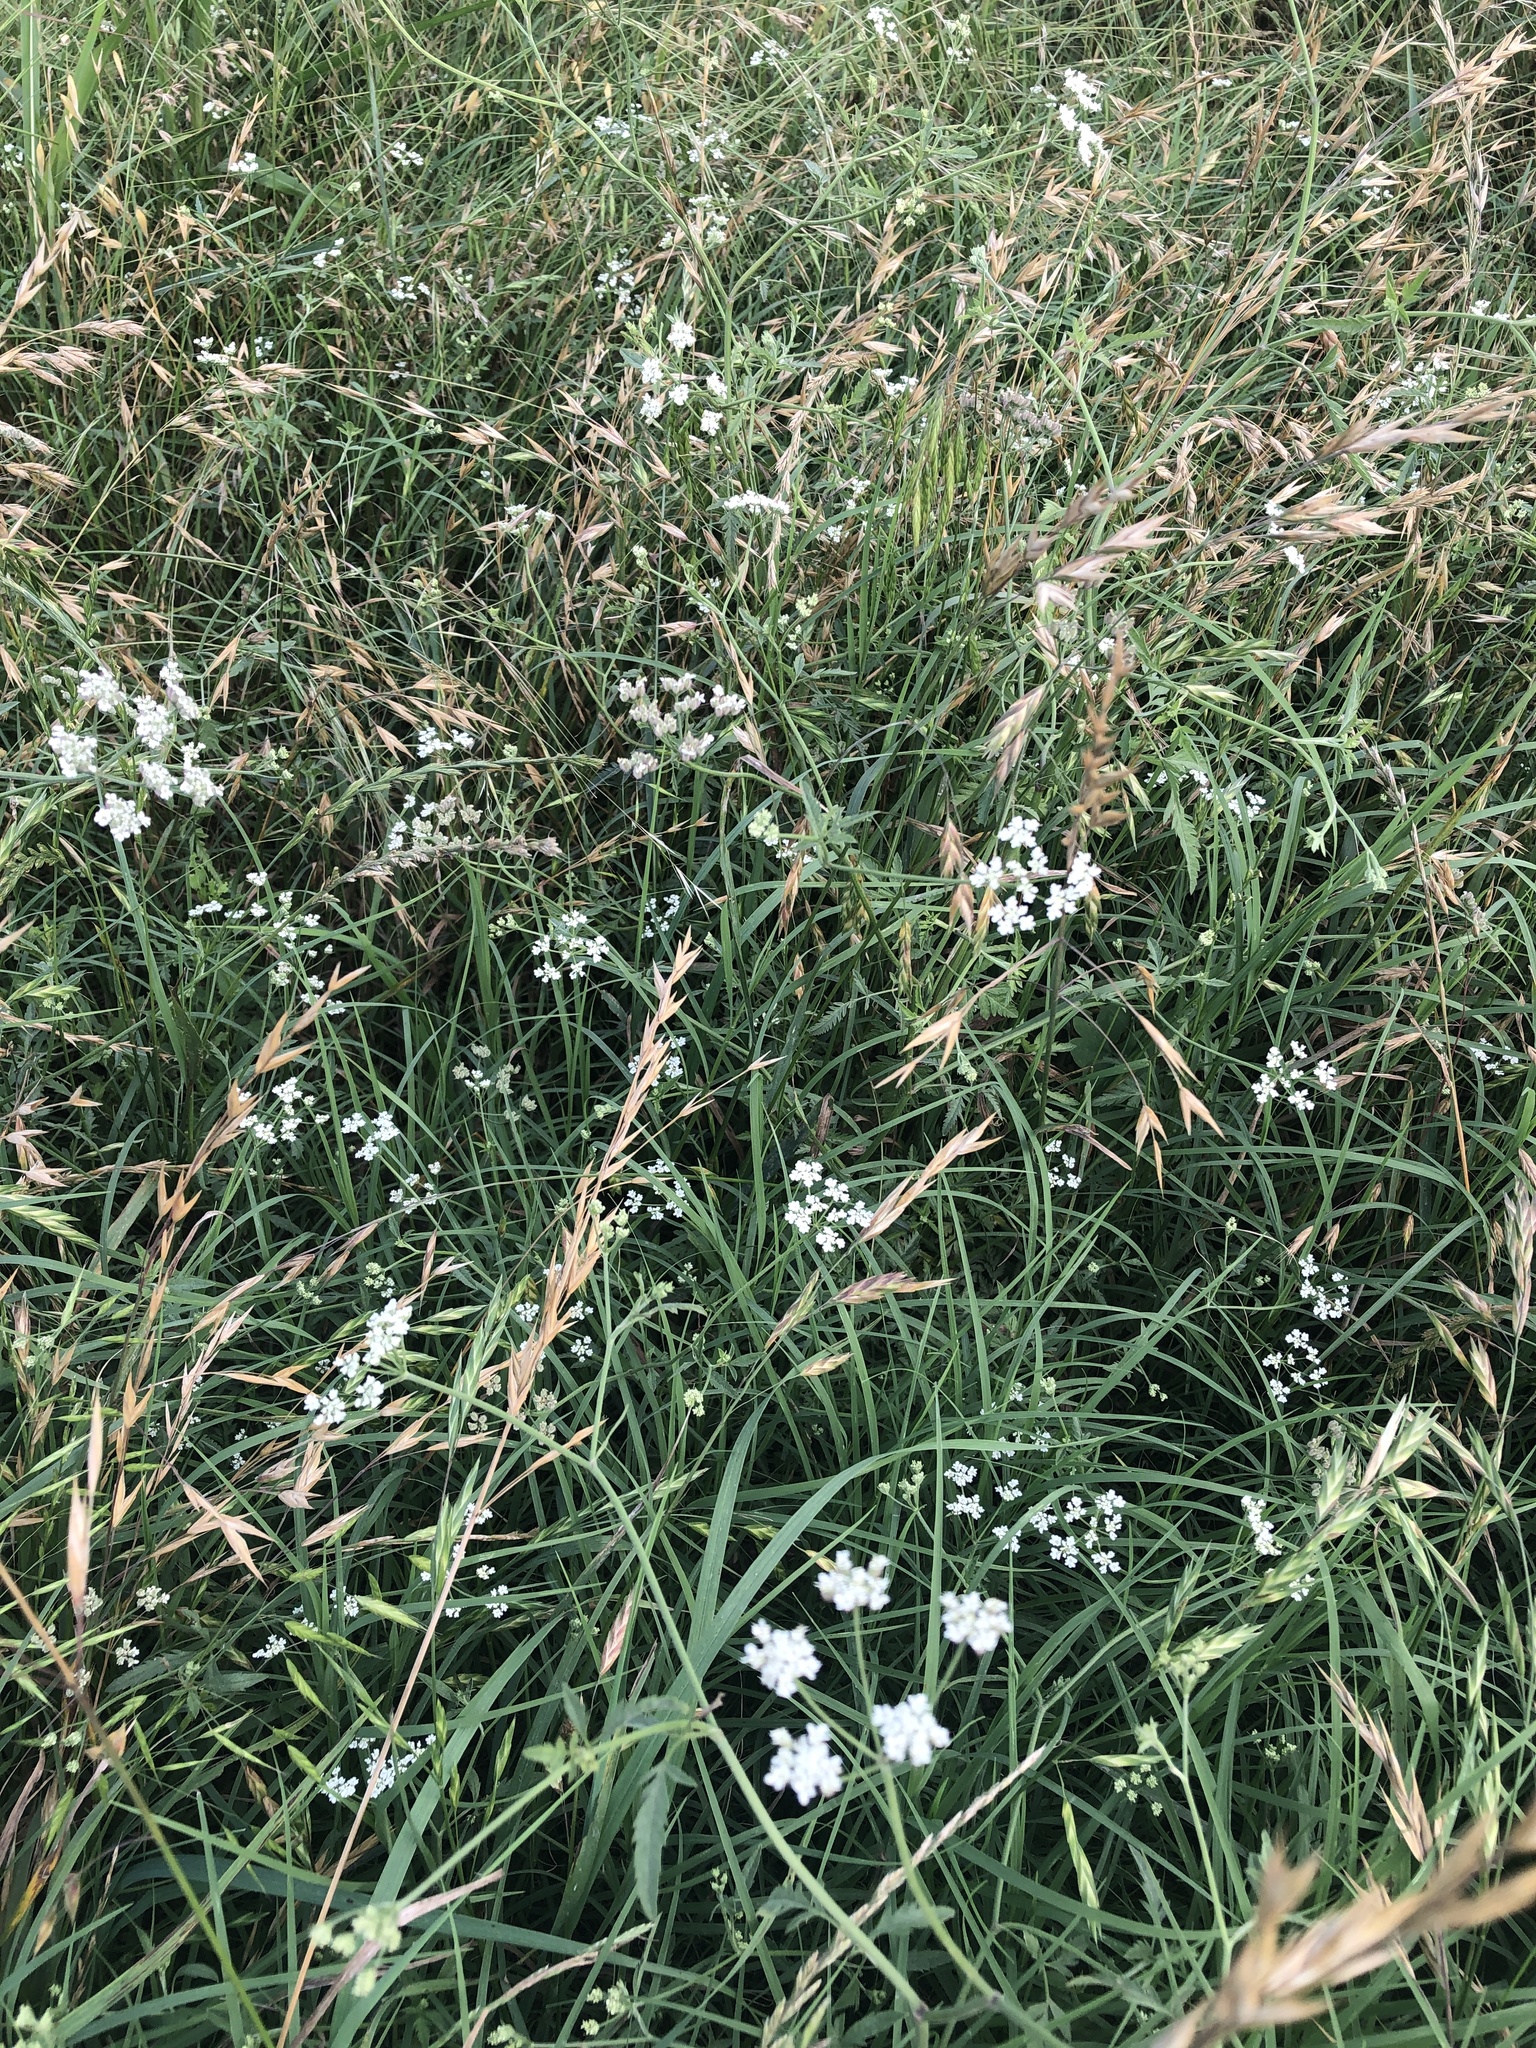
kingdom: Plantae
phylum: Tracheophyta
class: Magnoliopsida
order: Apiales
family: Apiaceae
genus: Torilis
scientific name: Torilis arvensis
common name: Spreading hedge-parsley
